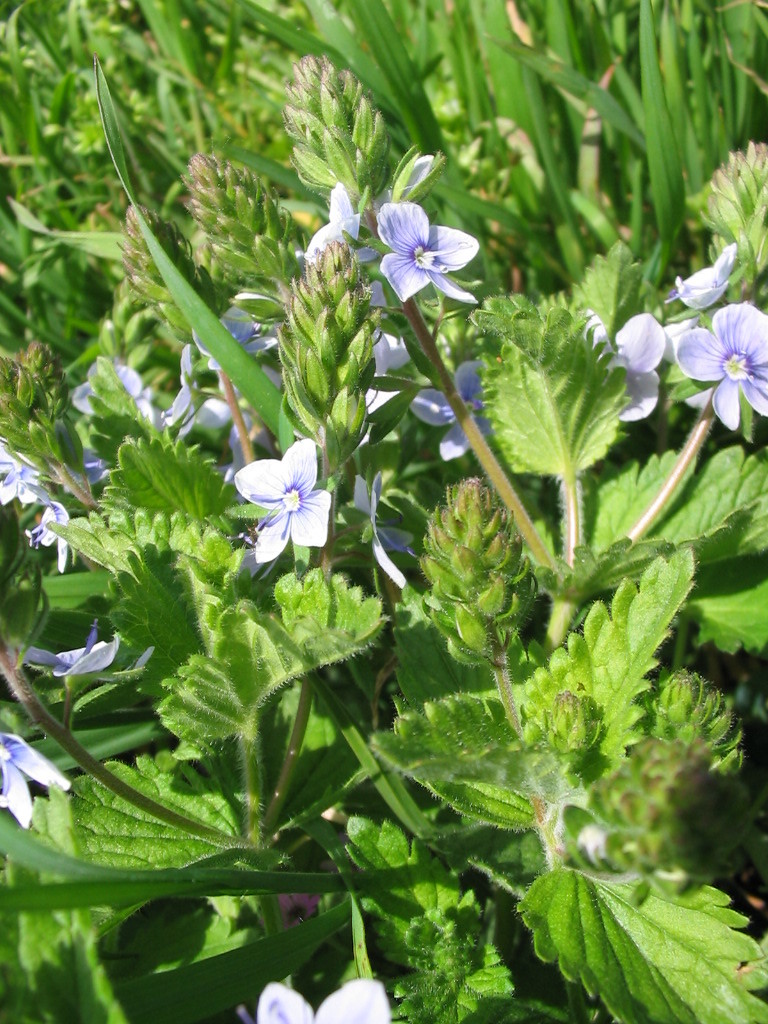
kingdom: Plantae
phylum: Tracheophyta
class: Magnoliopsida
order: Lamiales
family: Plantaginaceae
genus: Veronica
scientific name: Veronica chamaedrys
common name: Germander speedwell
